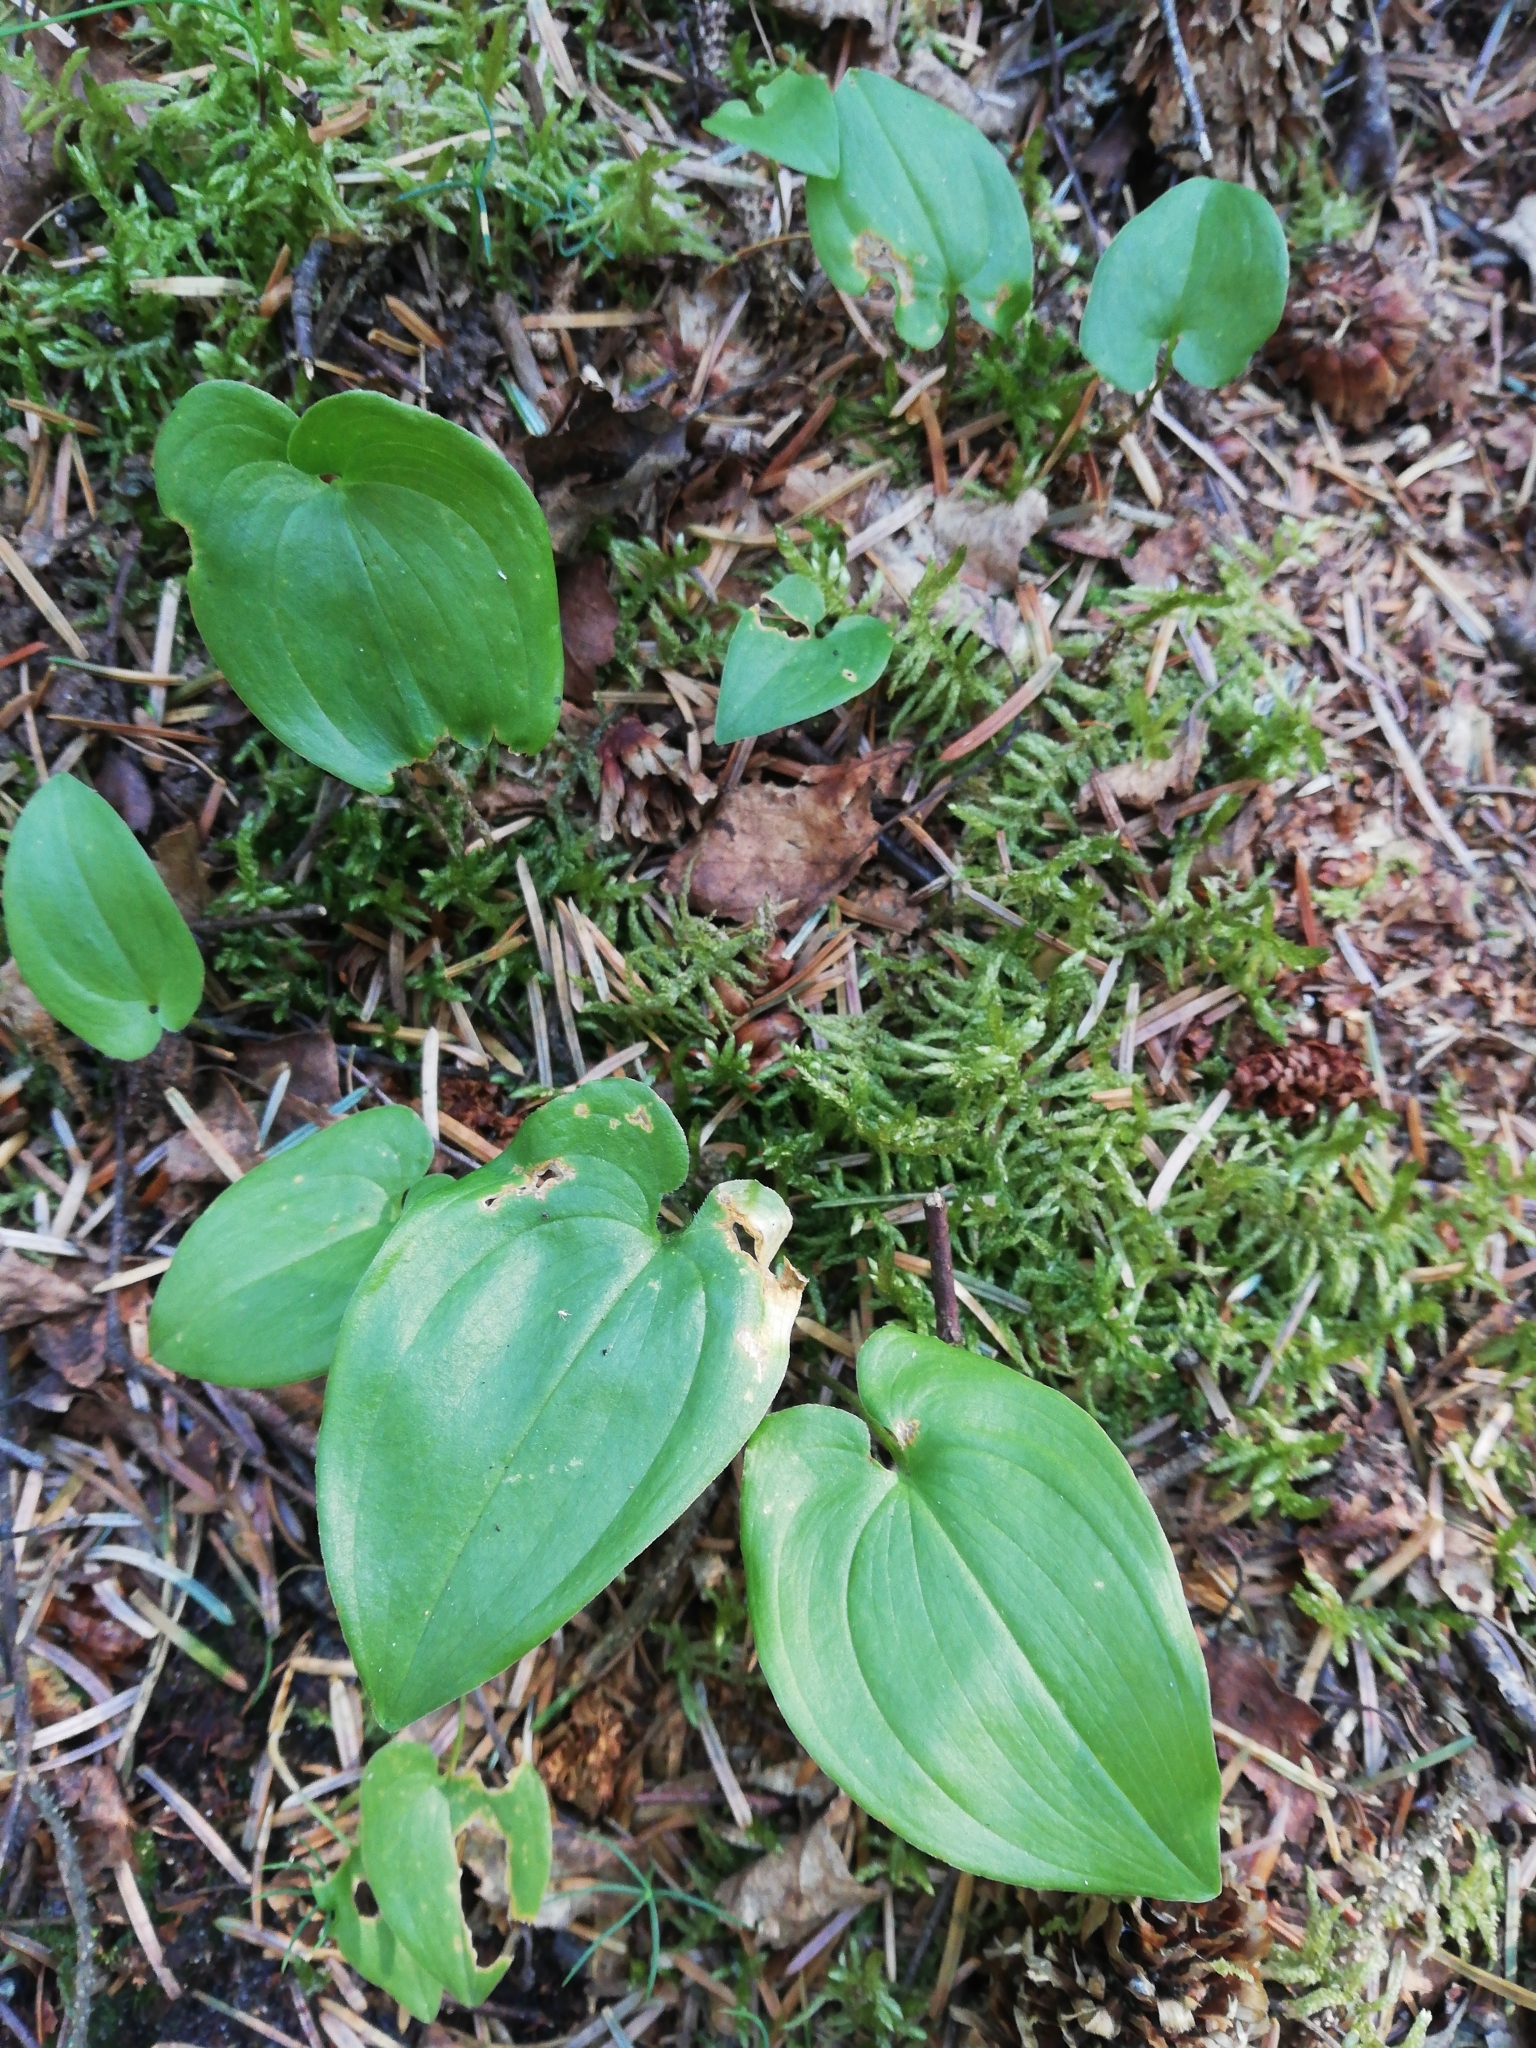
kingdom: Plantae
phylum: Tracheophyta
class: Liliopsida
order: Asparagales
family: Asparagaceae
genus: Maianthemum
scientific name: Maianthemum bifolium
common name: May lily
